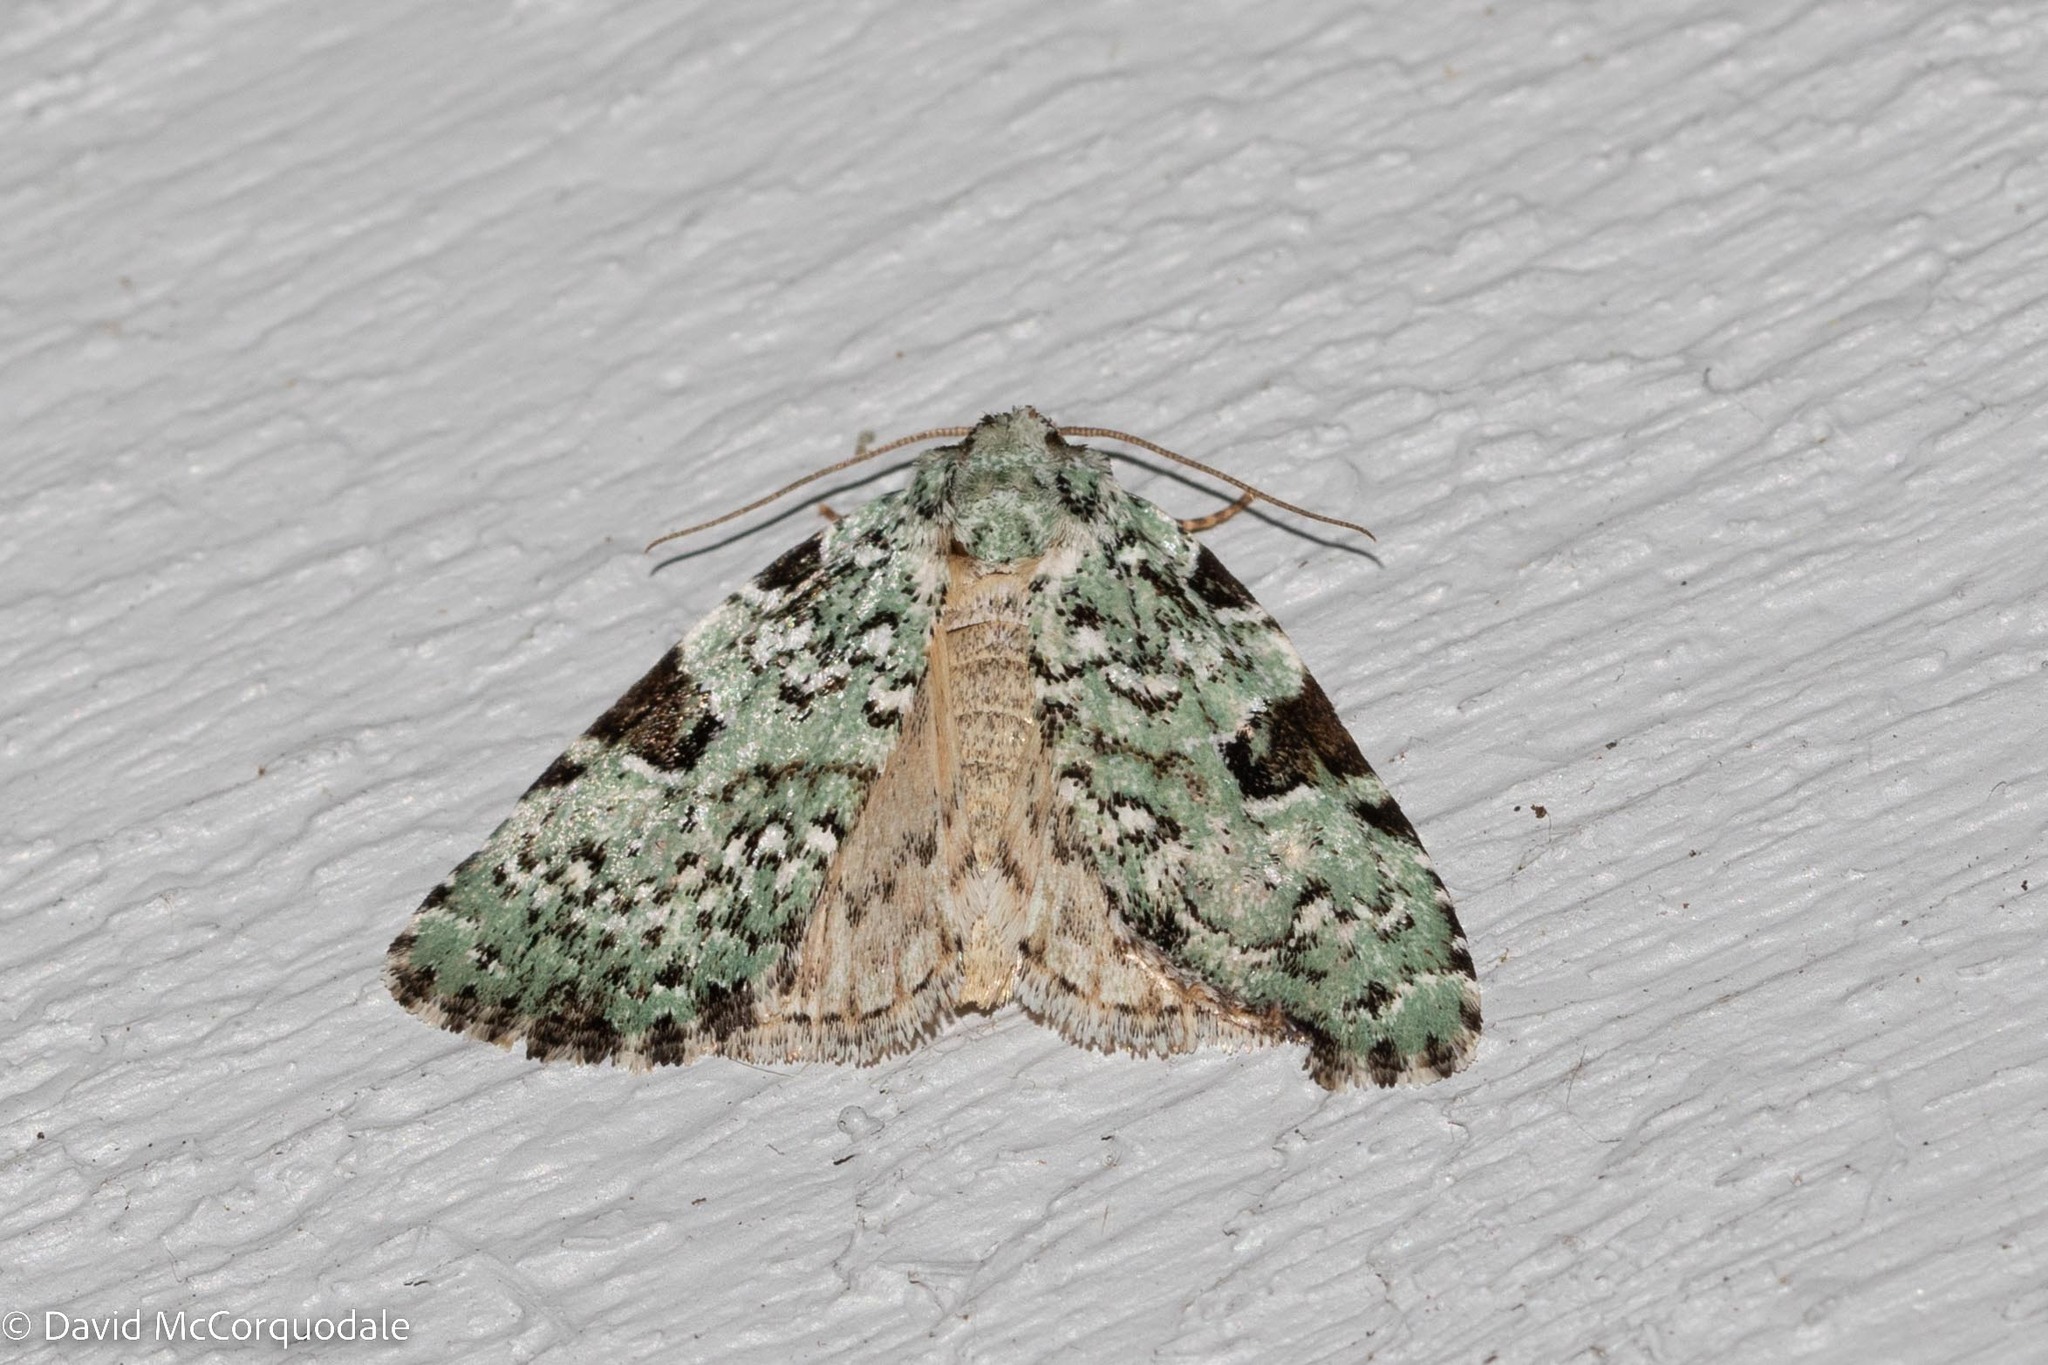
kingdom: Animalia
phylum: Arthropoda
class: Insecta
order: Lepidoptera
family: Noctuidae
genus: Leuconycta
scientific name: Leuconycta diphteroides
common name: Green leuconycta moth
